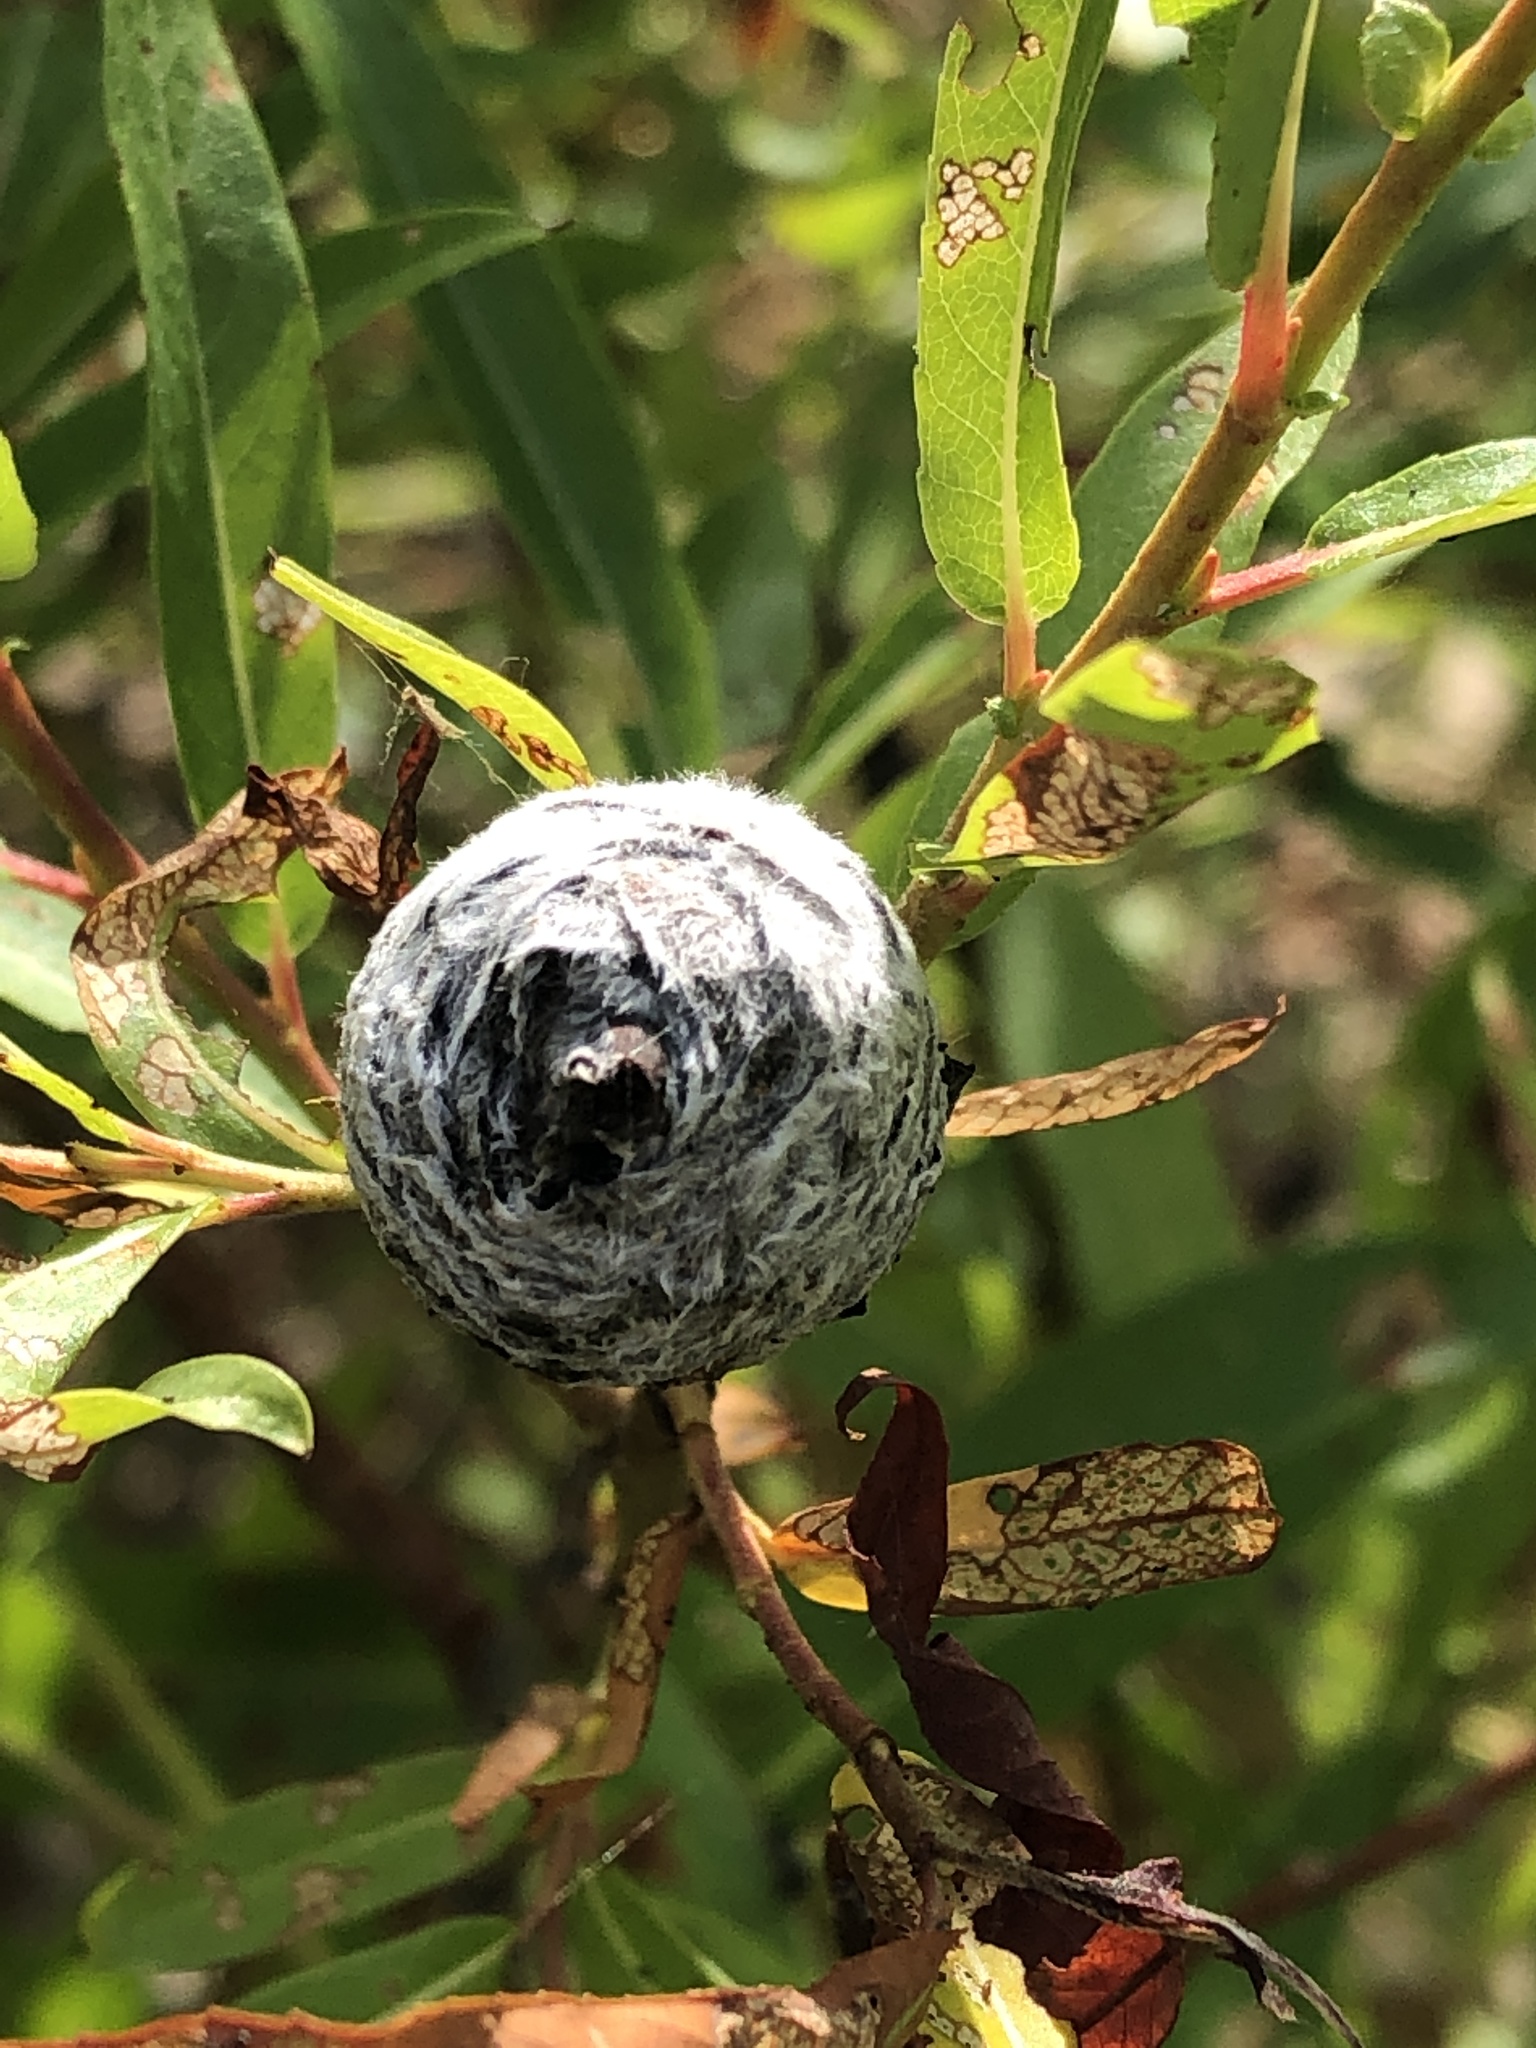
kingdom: Animalia
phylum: Arthropoda
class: Insecta
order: Diptera
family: Cecidomyiidae
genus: Rabdophaga
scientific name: Rabdophaga strobiloides
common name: Willow pinecone gall midge
